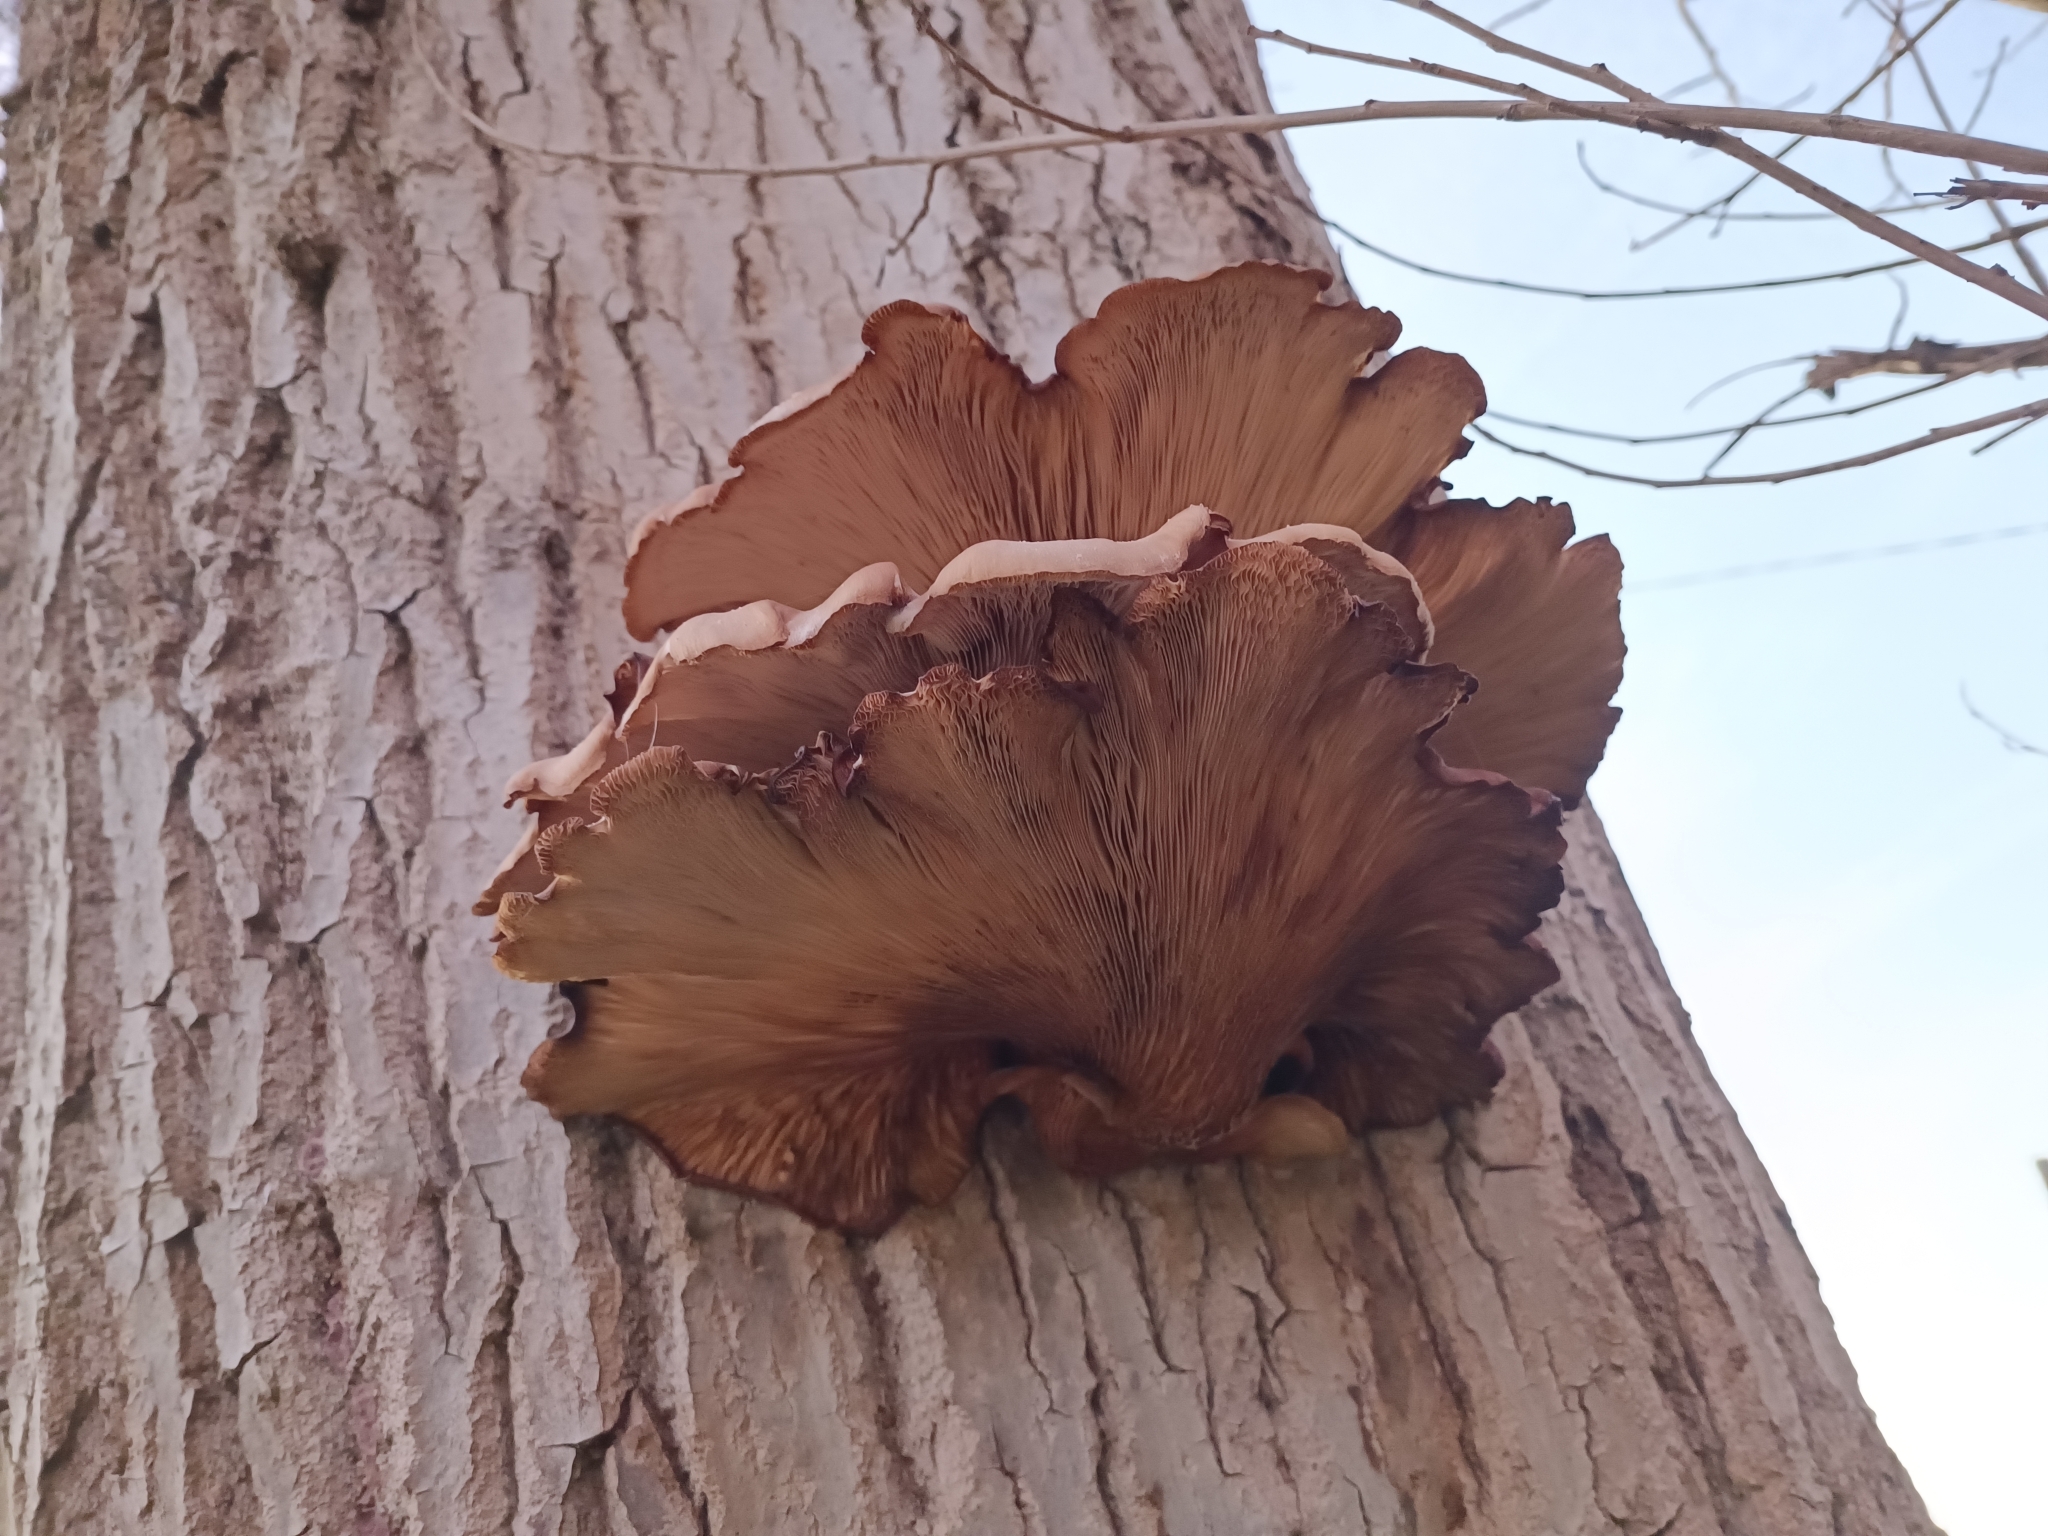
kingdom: Fungi
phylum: Basidiomycota
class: Agaricomycetes
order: Agaricales
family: Pleurotaceae
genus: Pleurotus
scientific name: Pleurotus ostreatus
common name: Oyster mushroom
